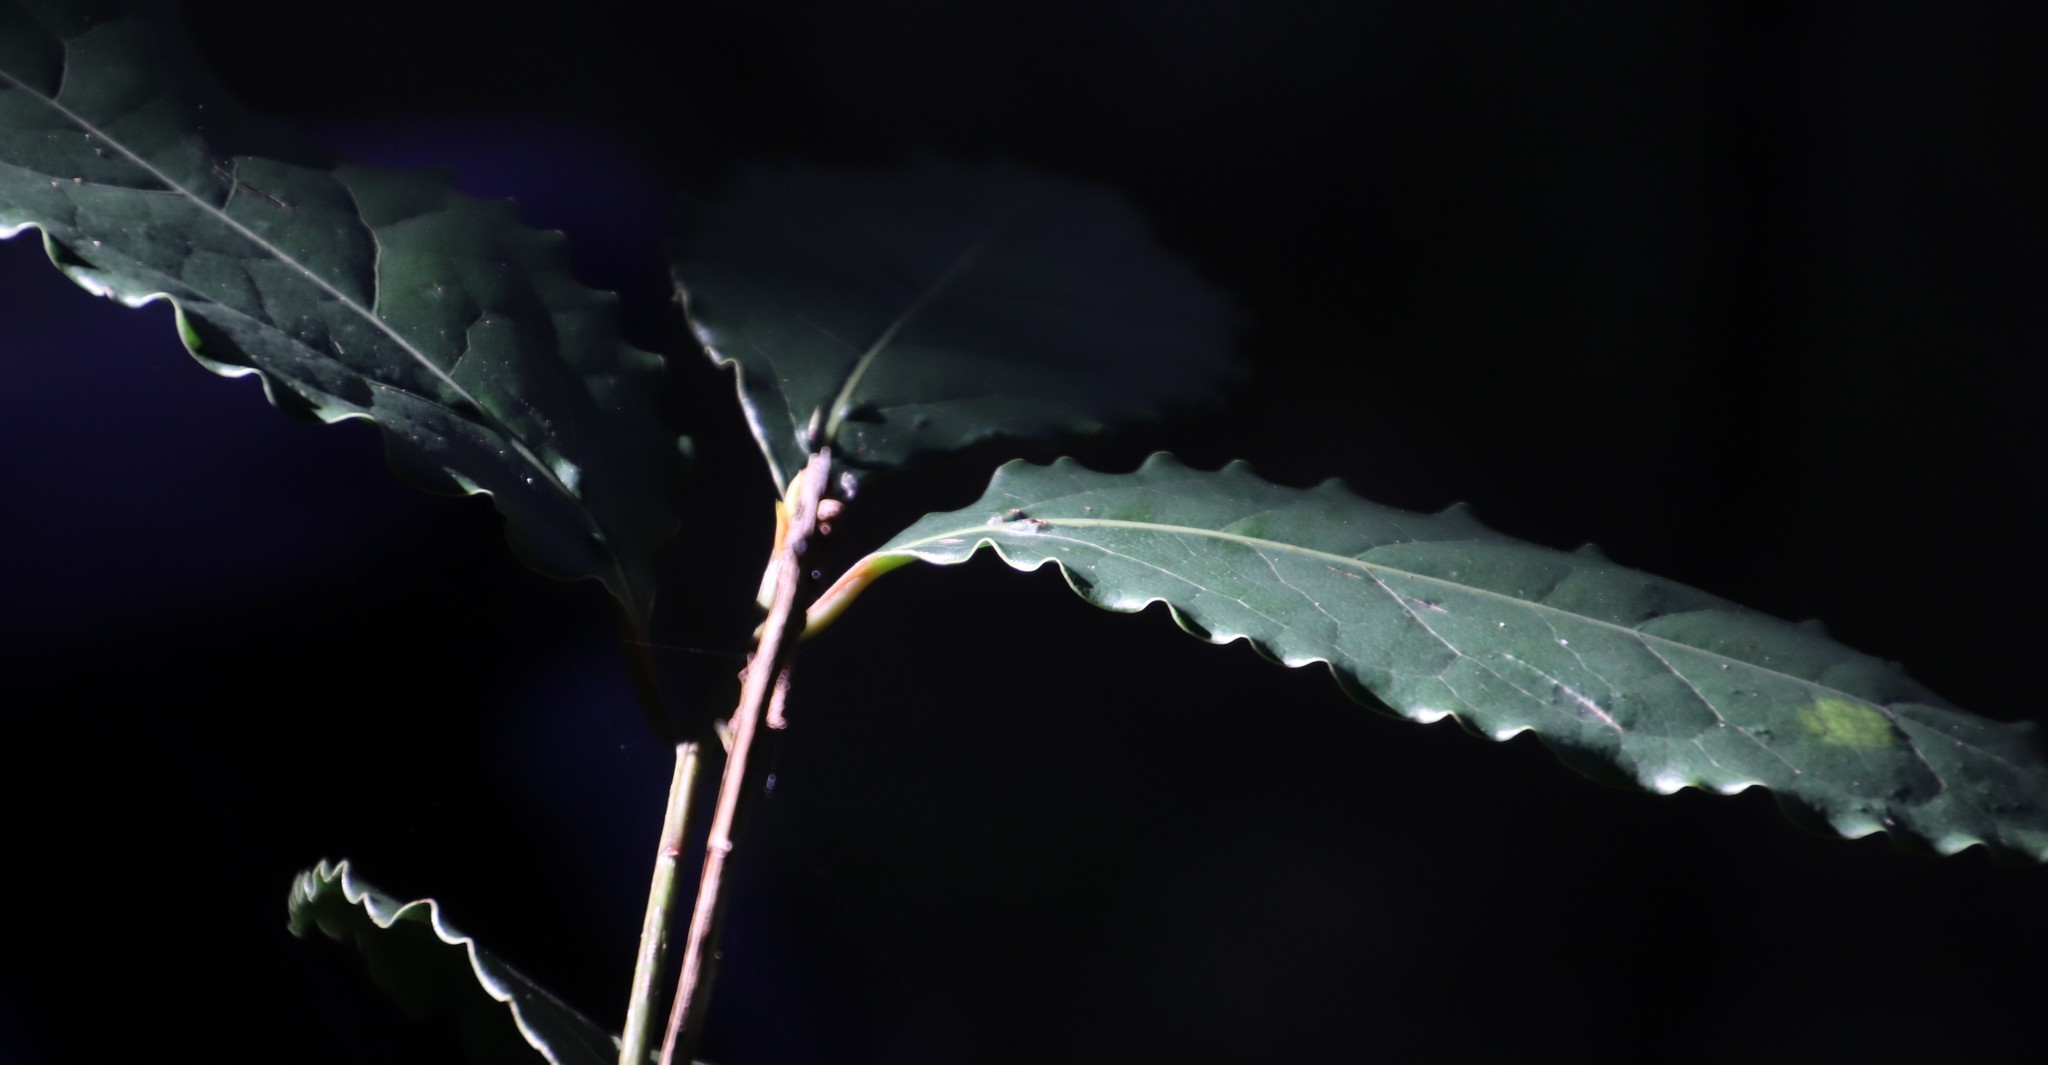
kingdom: Plantae
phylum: Tracheophyta
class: Magnoliopsida
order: Laurales
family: Lauraceae
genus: Ocotea
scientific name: Ocotea bullata
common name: Black stinkwood
